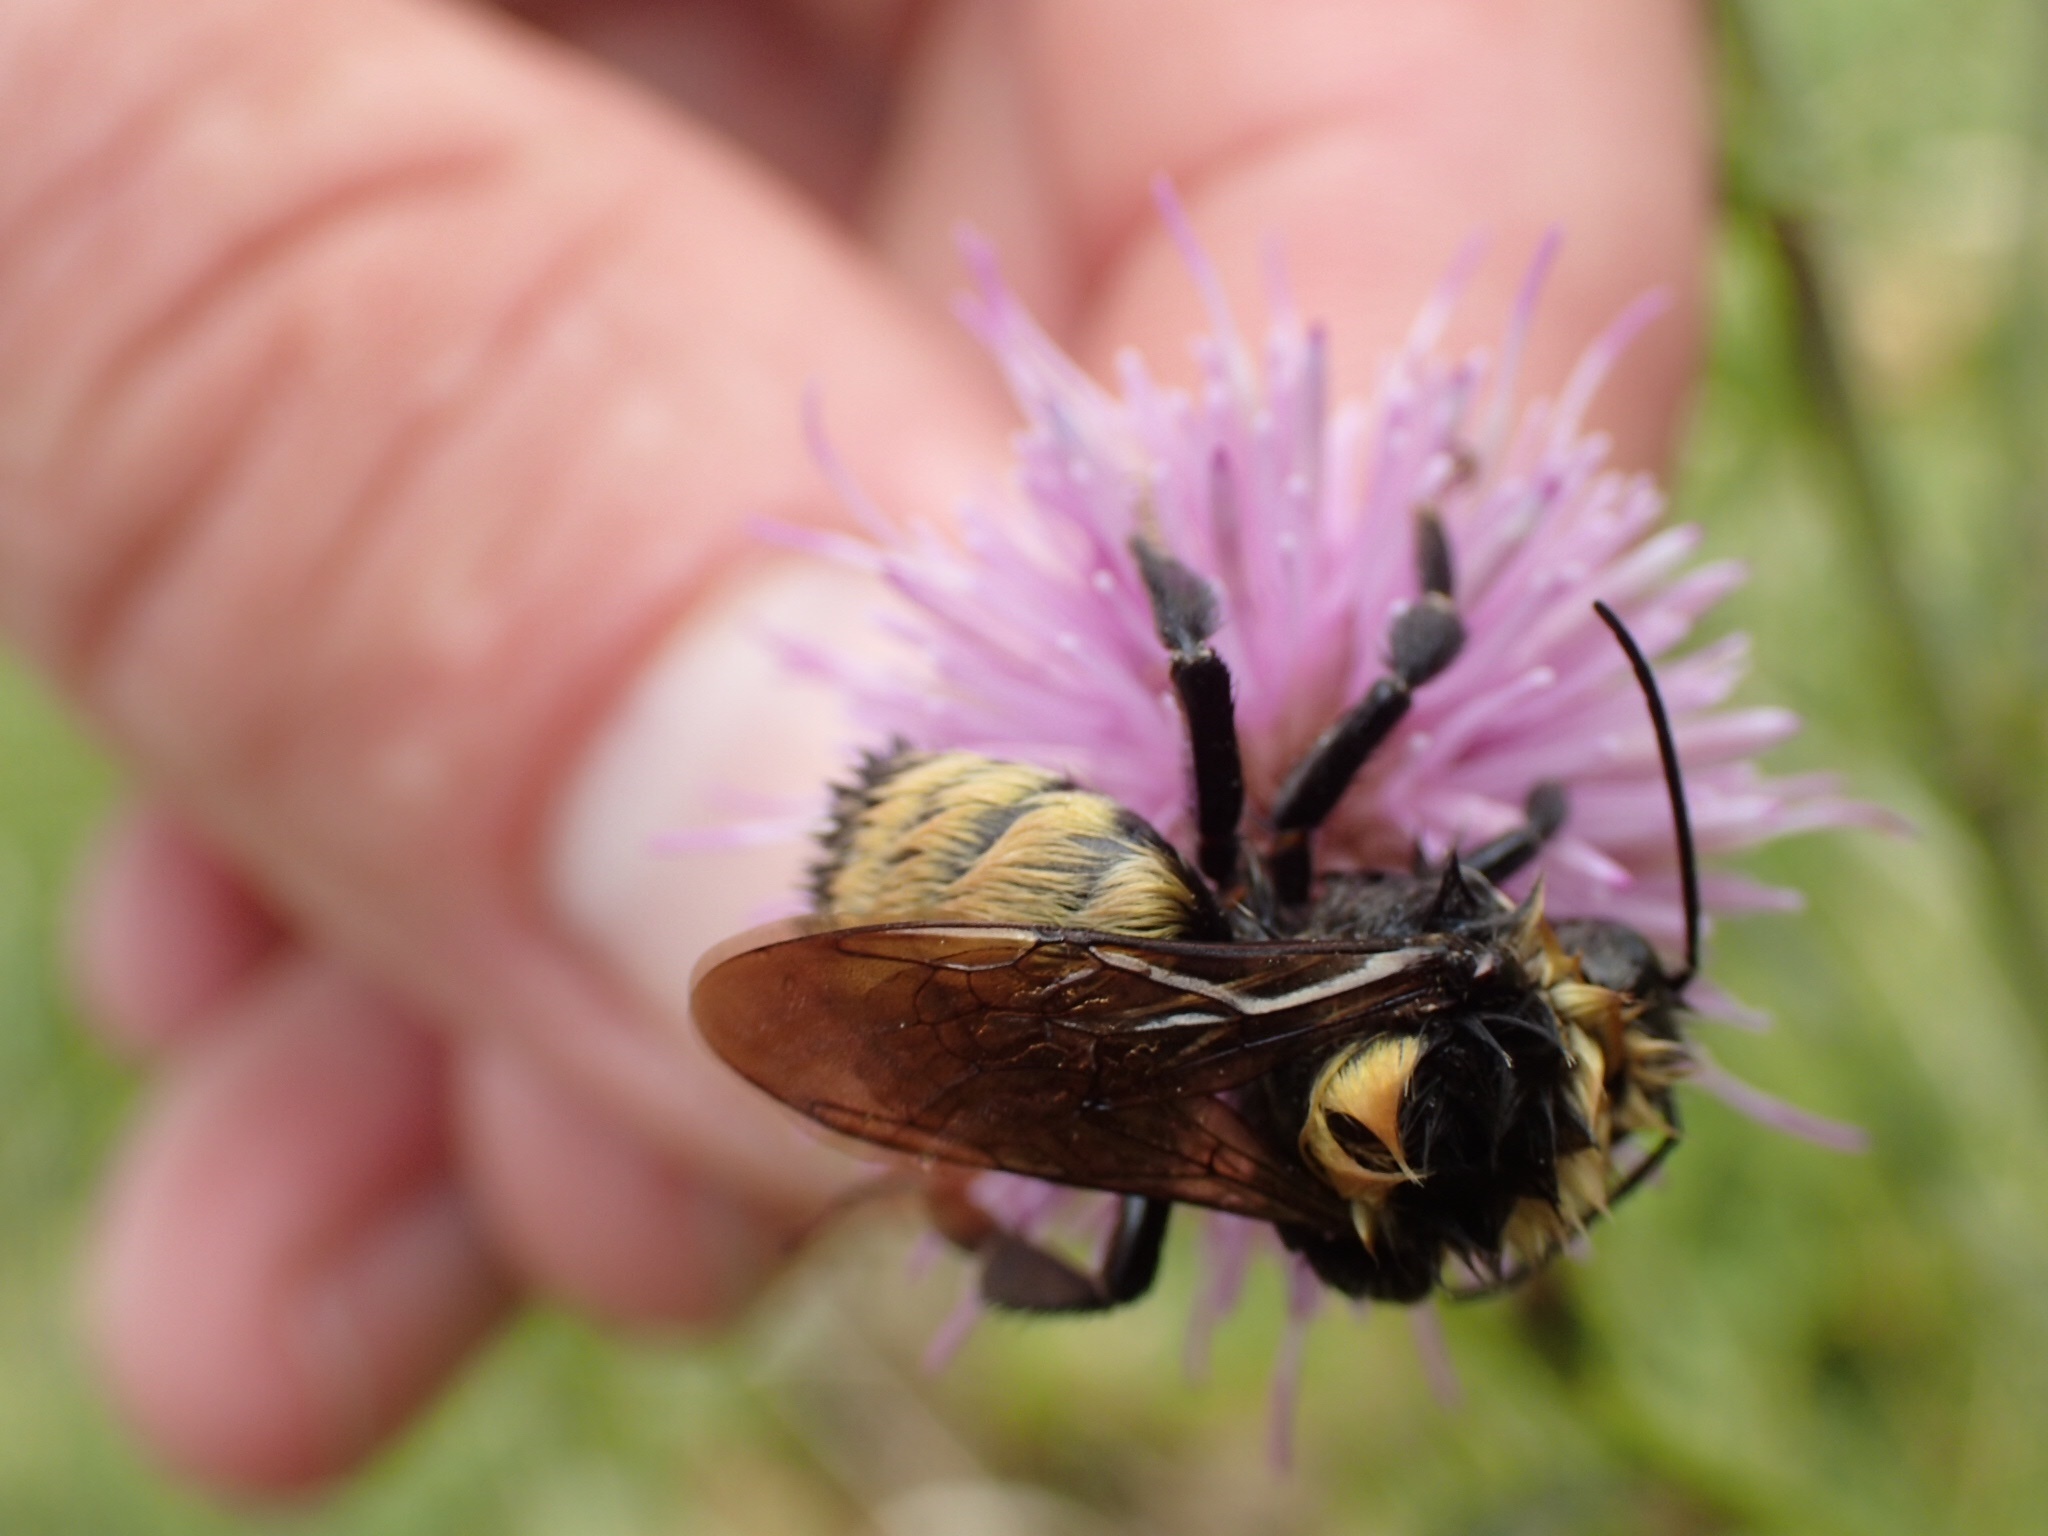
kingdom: Animalia
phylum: Arthropoda
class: Insecta
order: Hymenoptera
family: Apidae
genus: Bombus
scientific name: Bombus borealis
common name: Northern amber bumble bee
